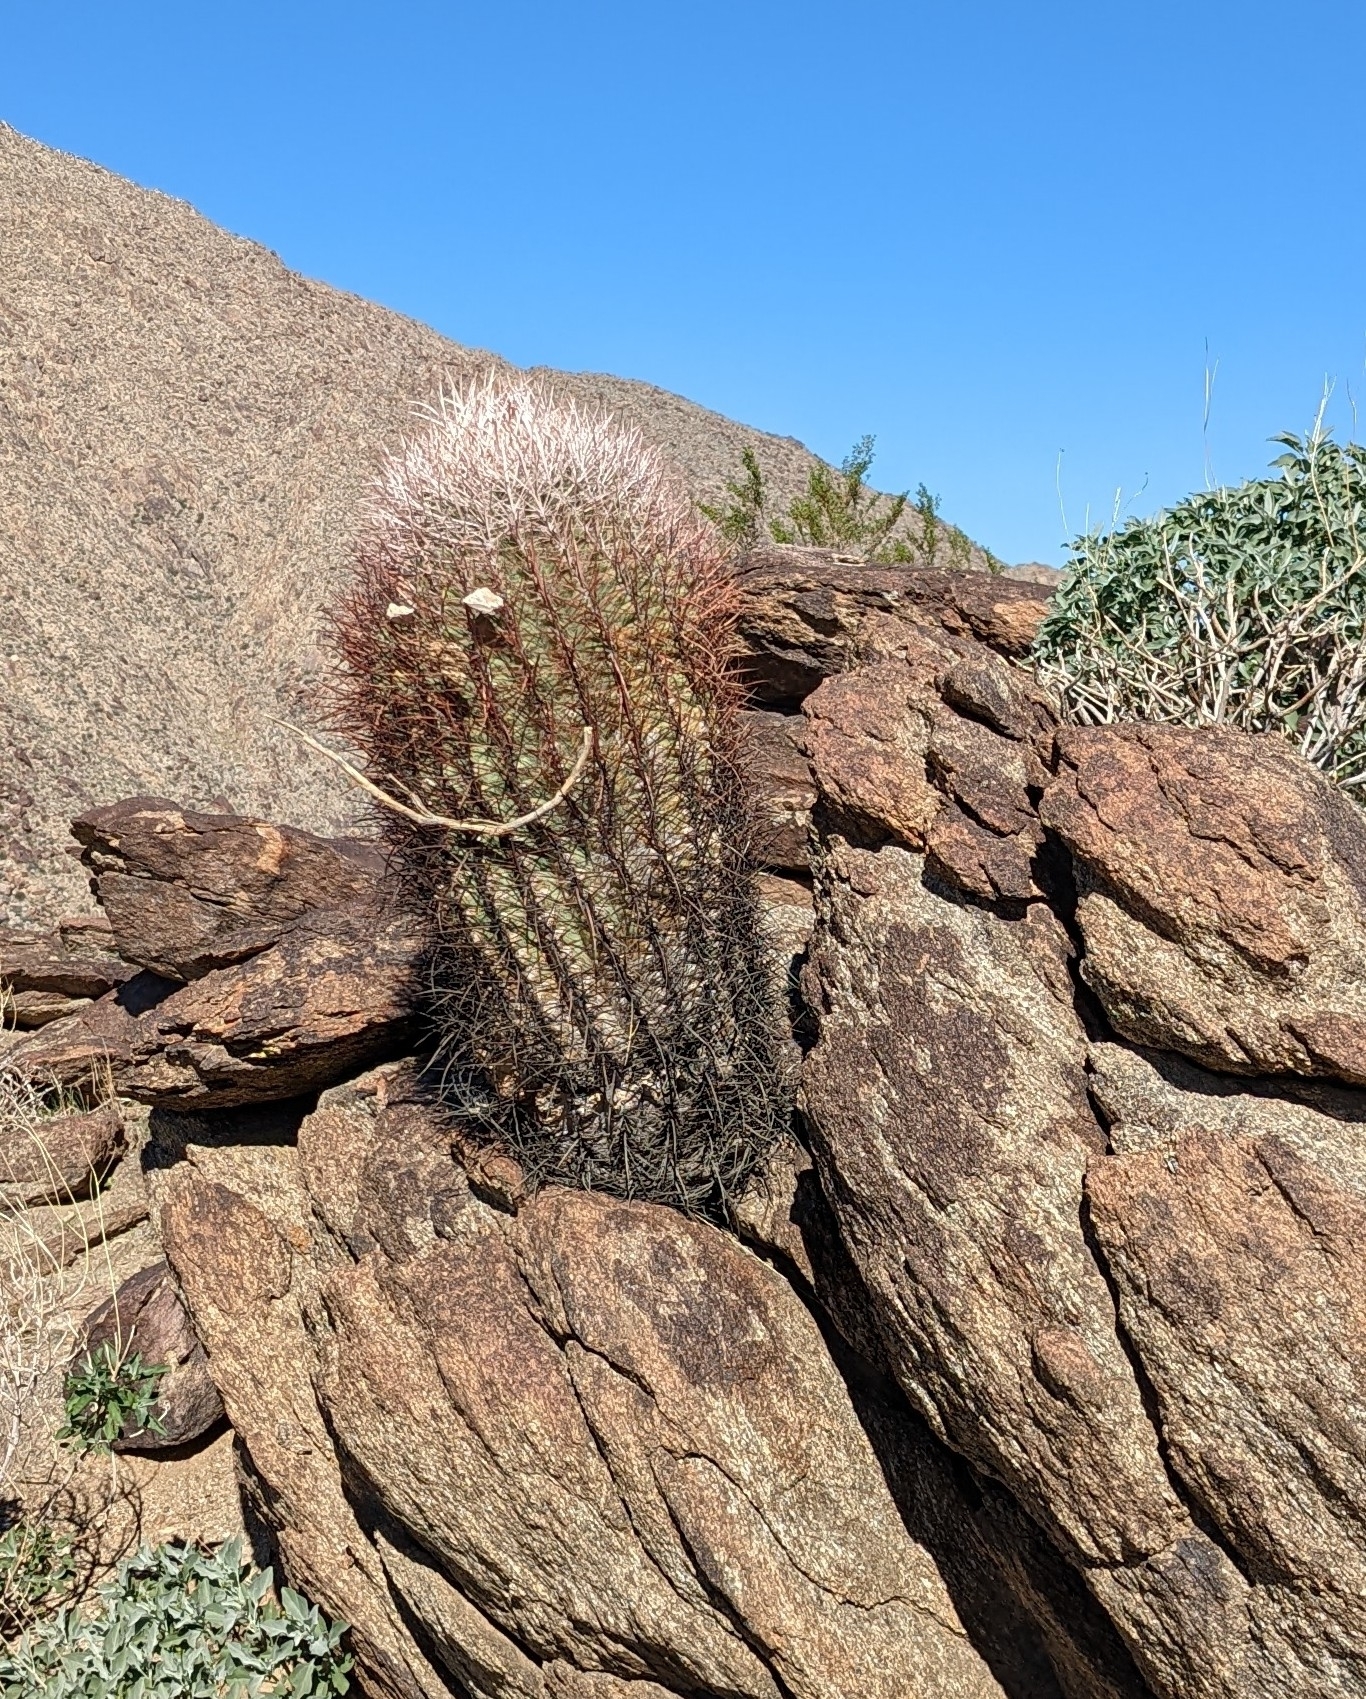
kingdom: Plantae
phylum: Tracheophyta
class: Magnoliopsida
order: Caryophyllales
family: Cactaceae
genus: Ferocactus
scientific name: Ferocactus cylindraceus
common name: California barrel cactus
